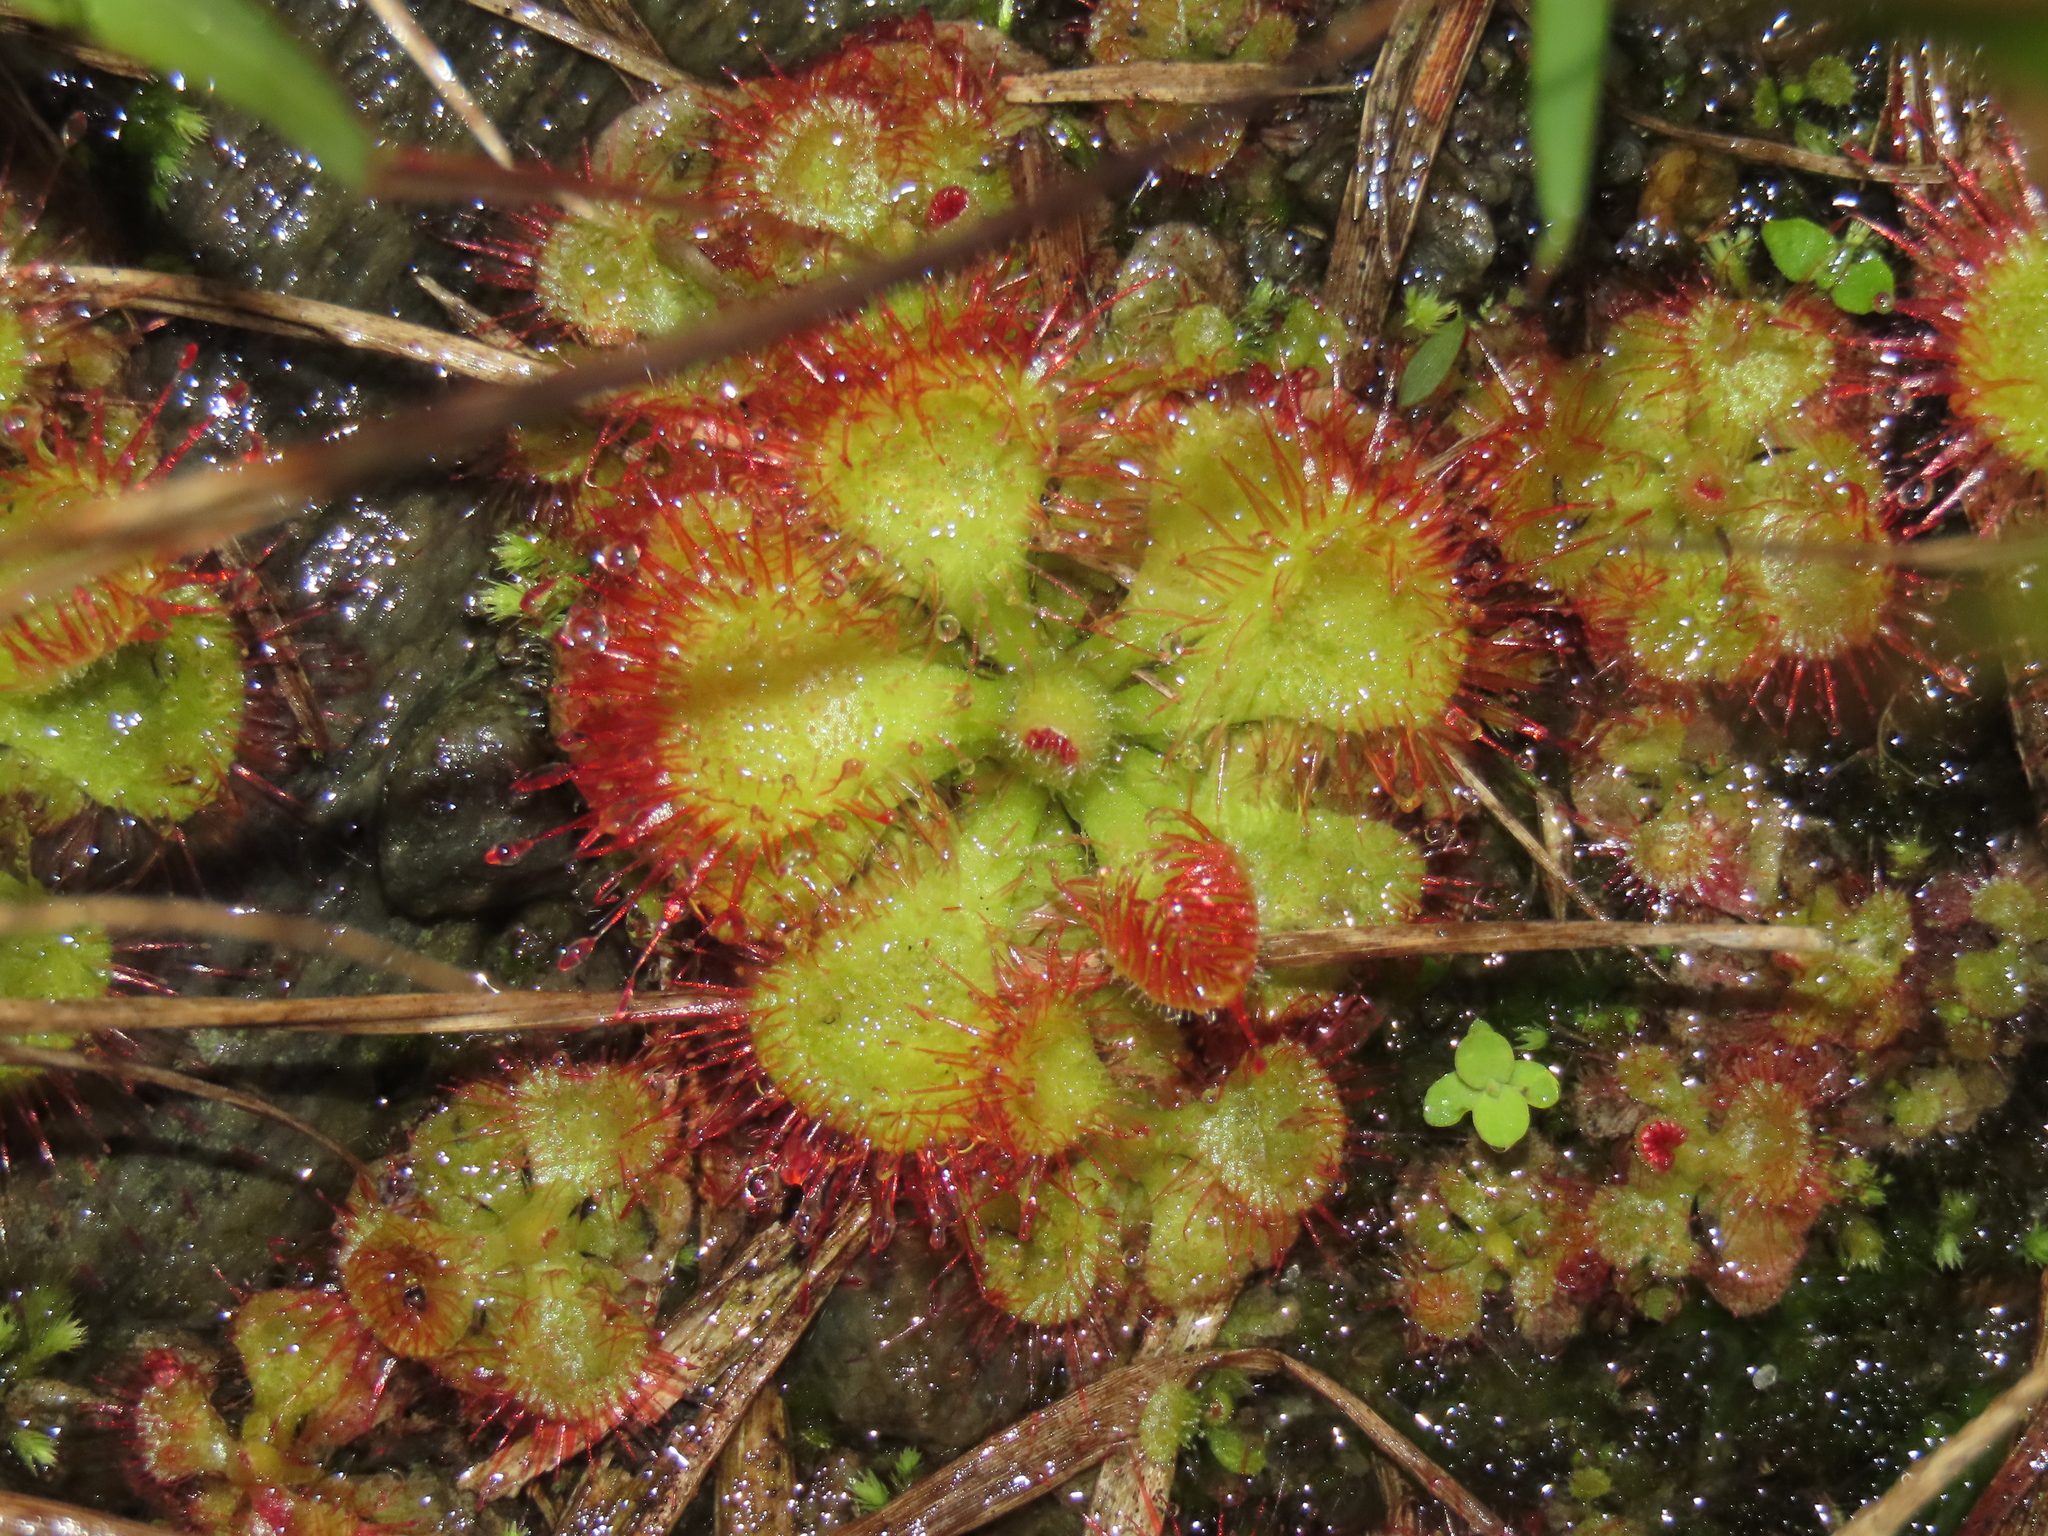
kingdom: Plantae
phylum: Tracheophyta
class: Magnoliopsida
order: Caryophyllales
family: Droseraceae
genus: Drosera
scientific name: Drosera spatulata
